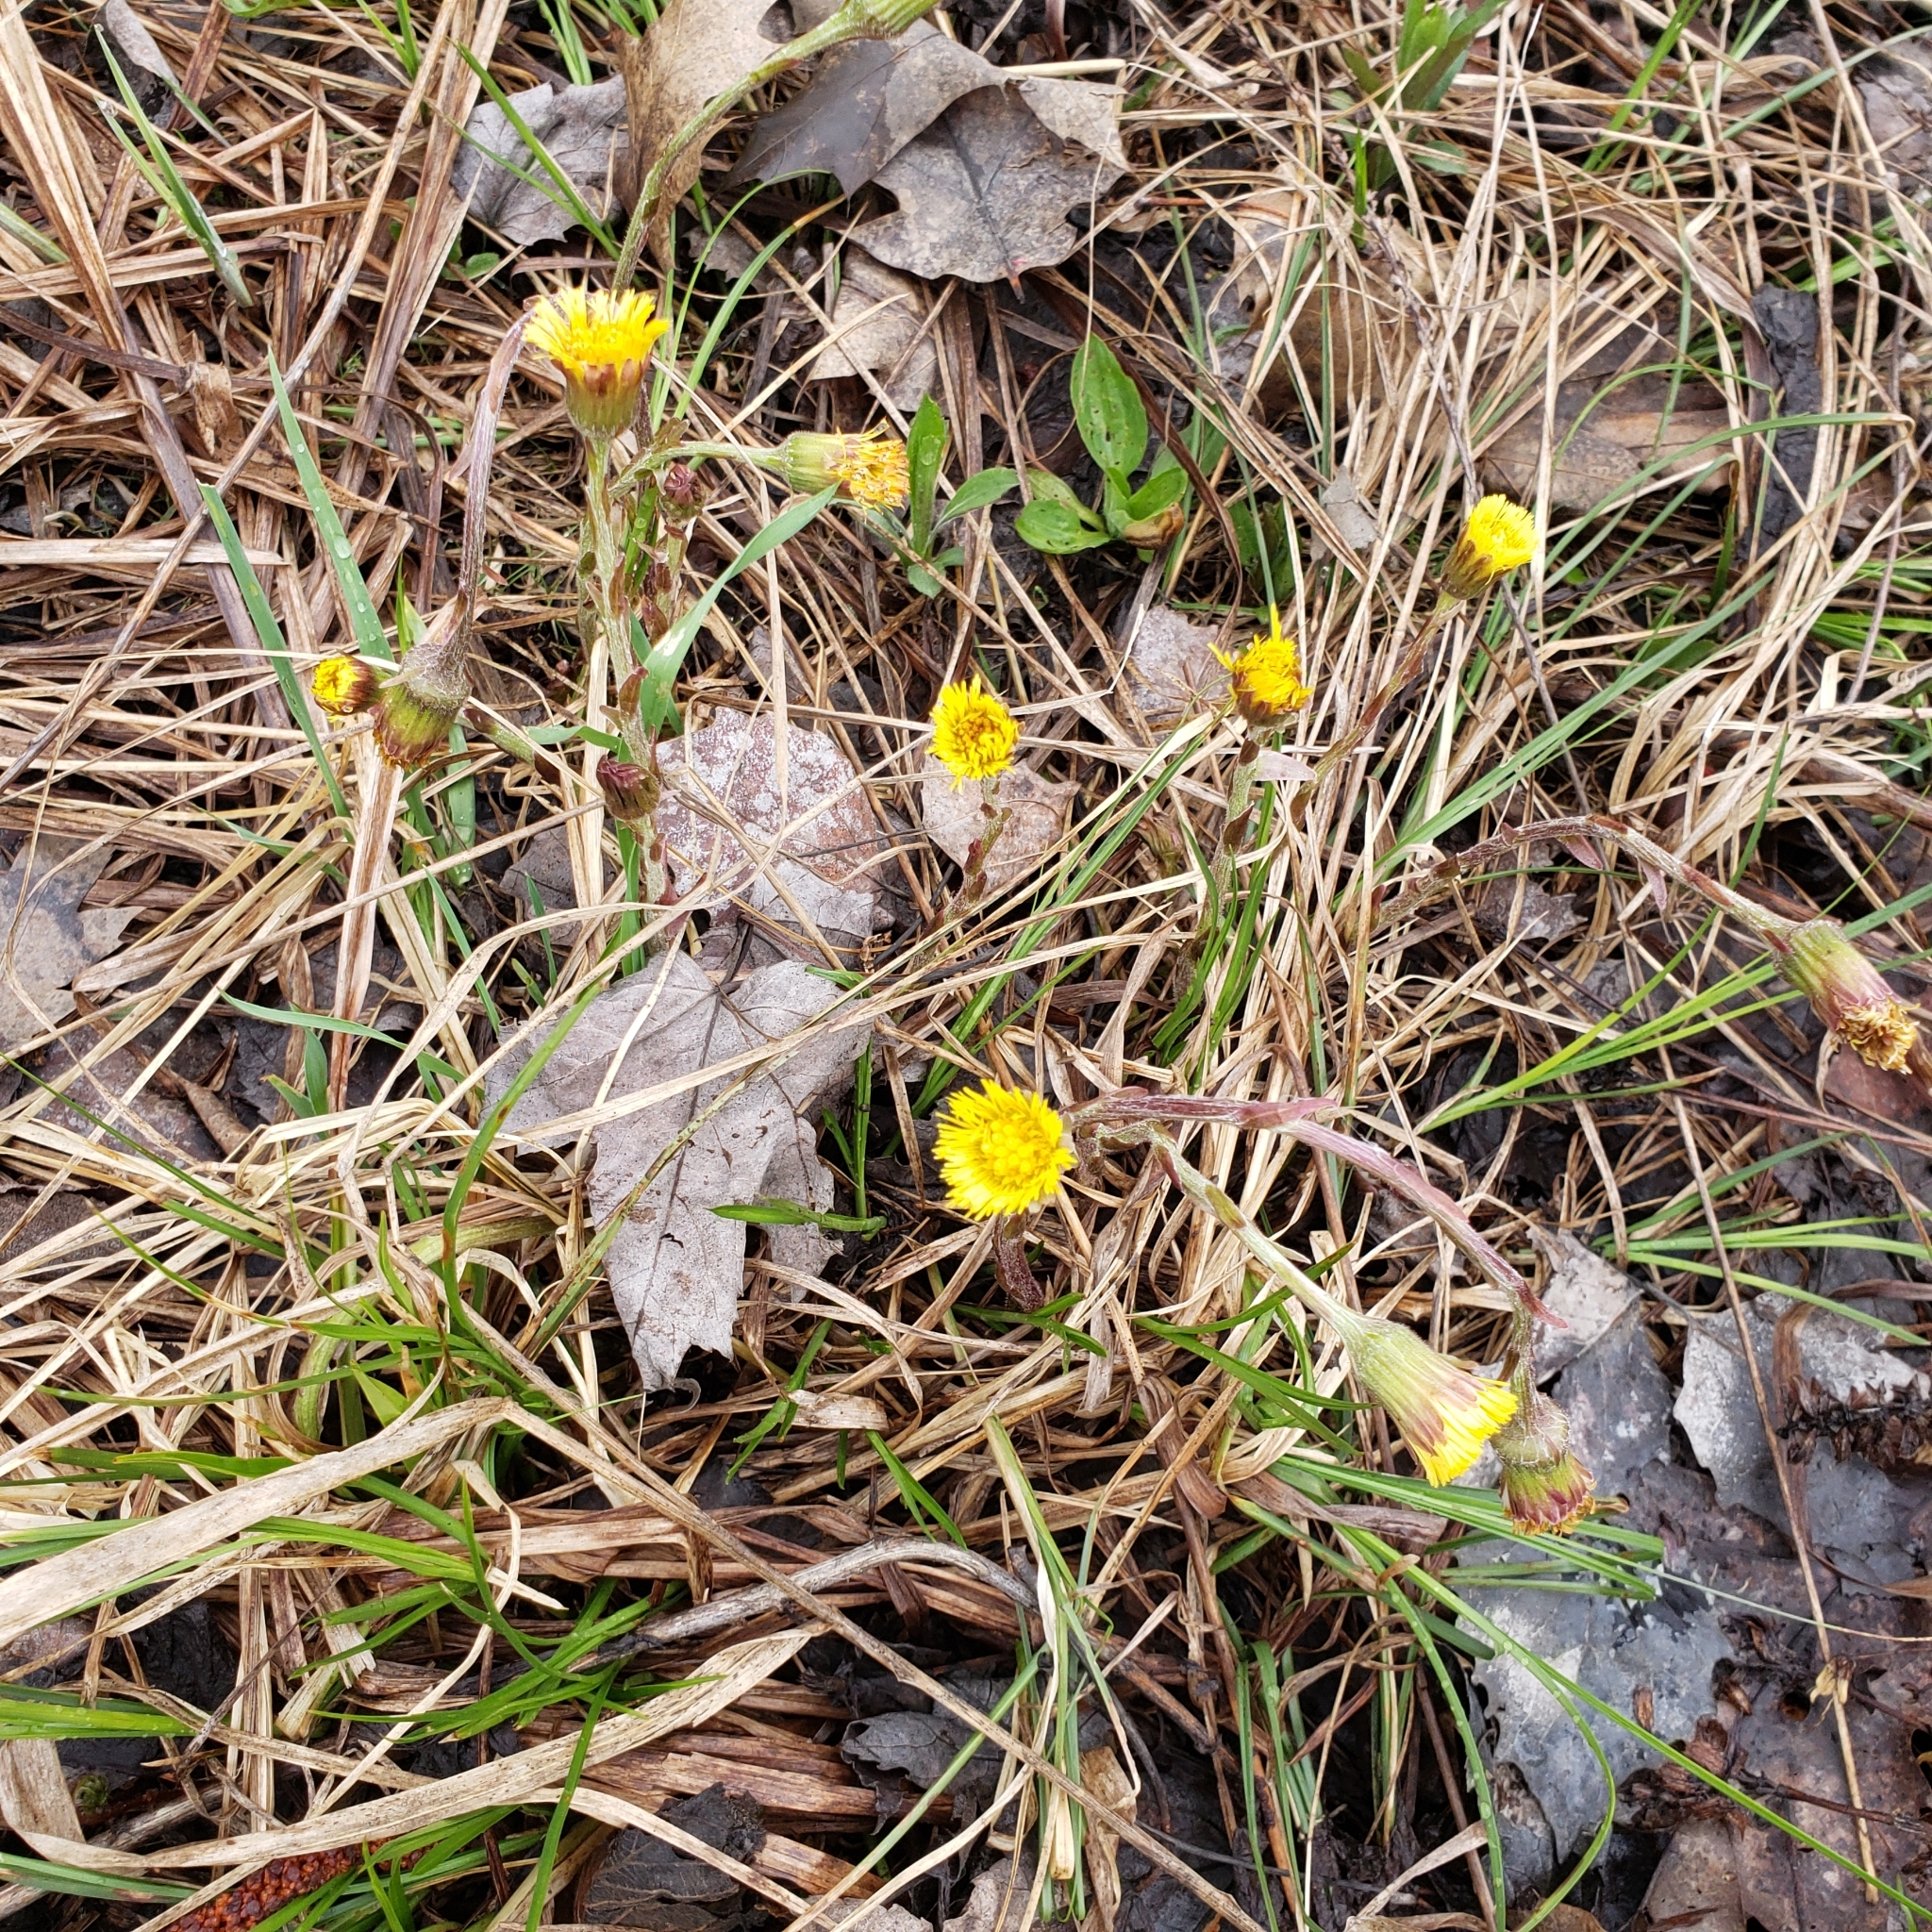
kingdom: Plantae
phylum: Tracheophyta
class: Magnoliopsida
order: Asterales
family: Asteraceae
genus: Tussilago
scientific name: Tussilago farfara
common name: Coltsfoot
